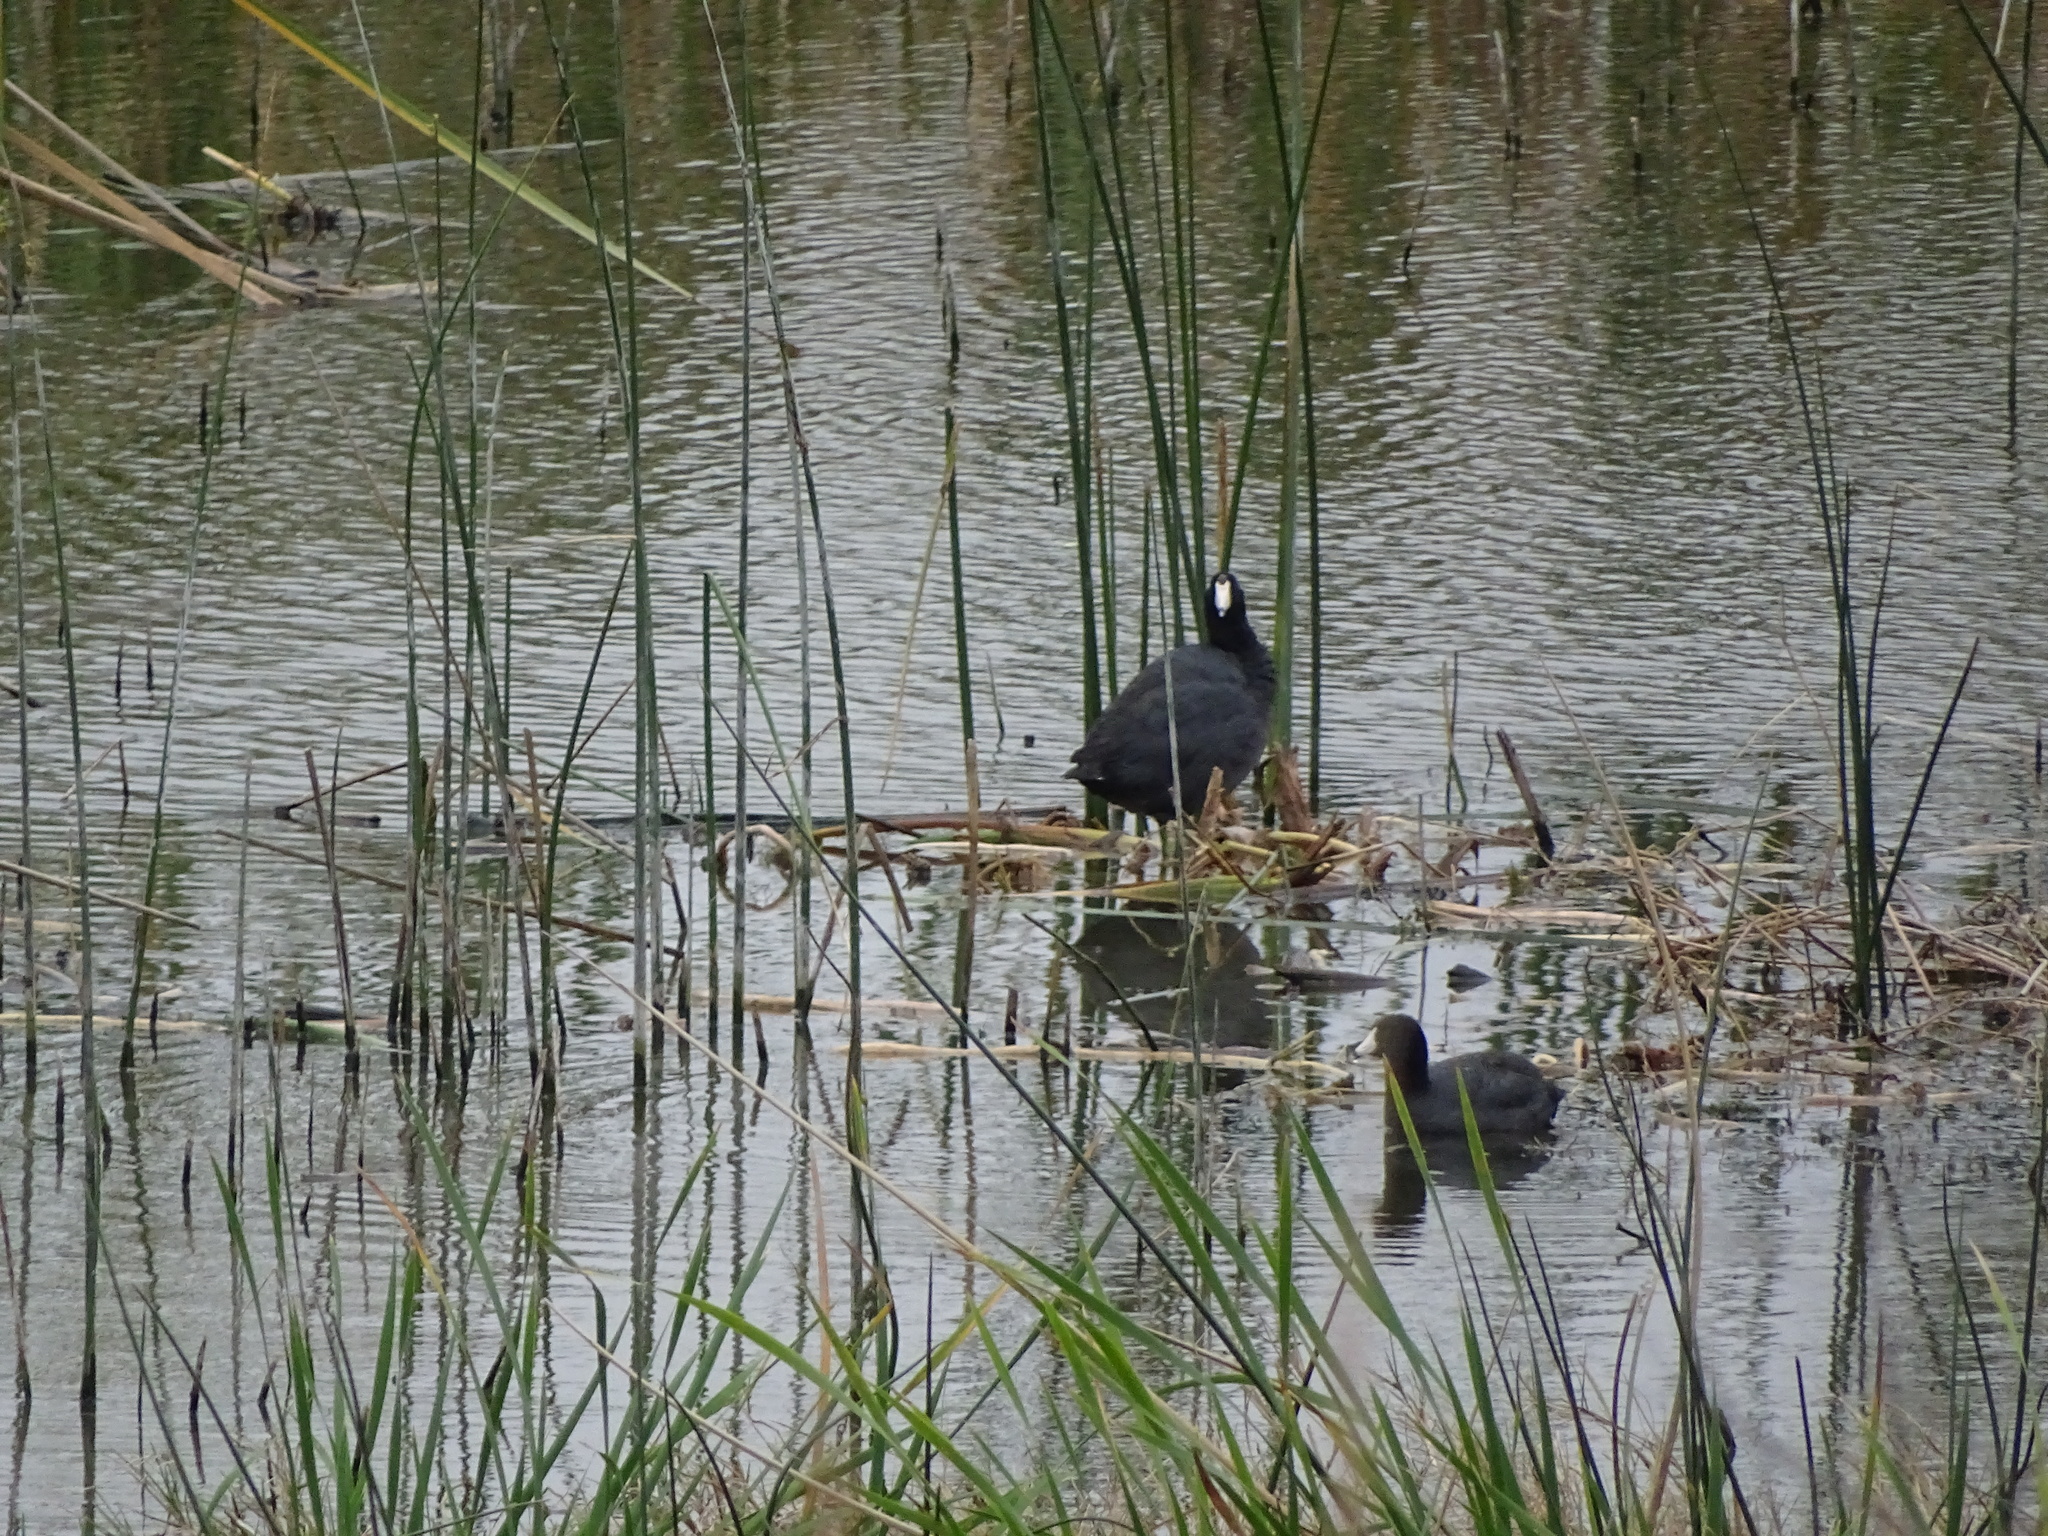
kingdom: Animalia
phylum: Chordata
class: Aves
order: Gruiformes
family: Rallidae
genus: Fulica
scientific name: Fulica americana
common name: American coot
